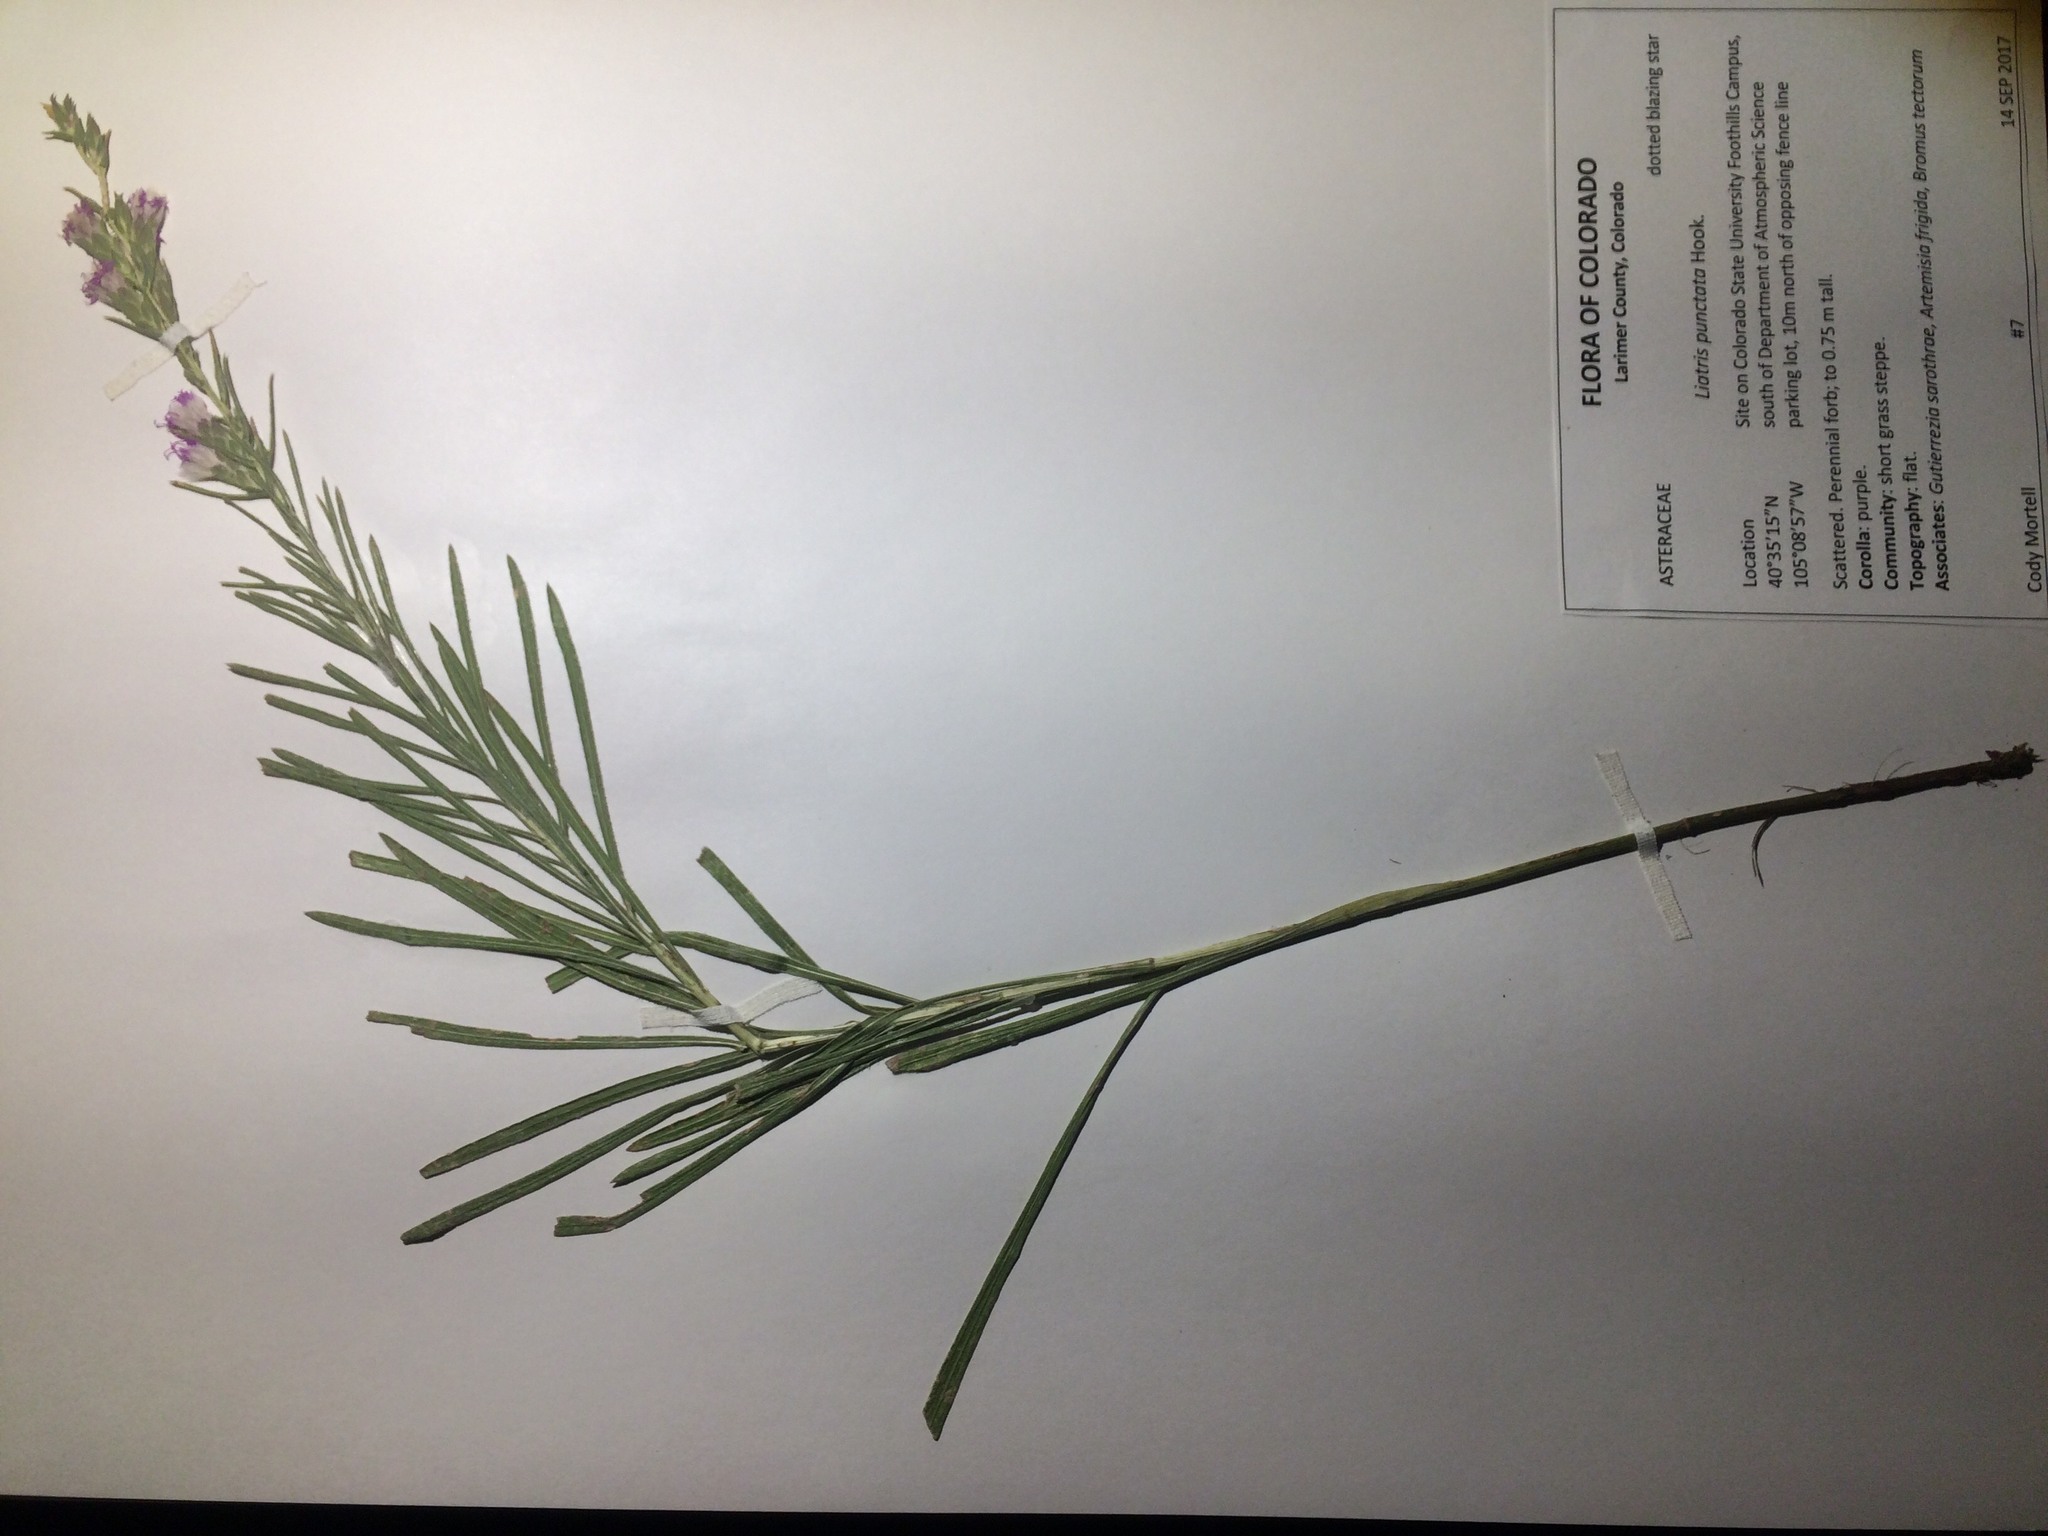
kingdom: Plantae
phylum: Tracheophyta
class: Magnoliopsida
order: Asterales
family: Asteraceae
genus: Liatris
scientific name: Liatris punctata
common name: Dotted gayfeather
